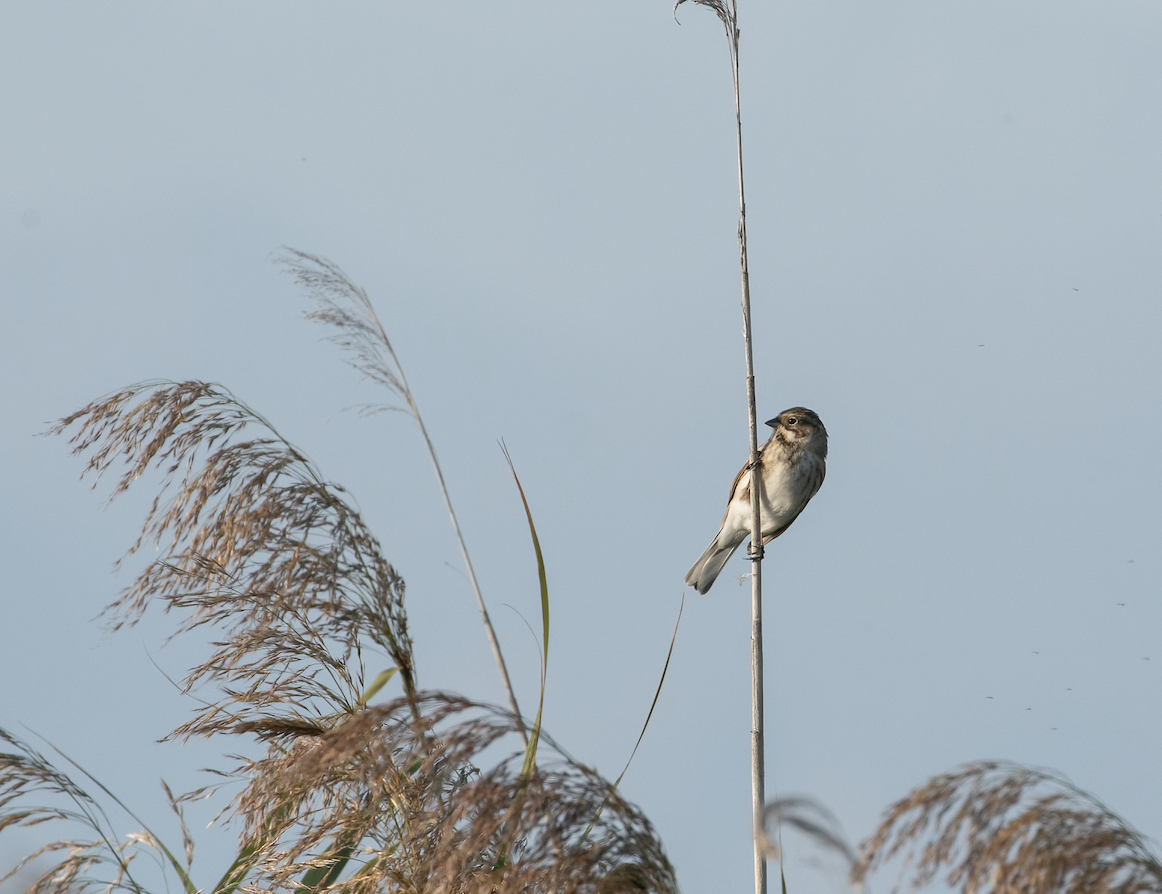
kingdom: Animalia
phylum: Chordata
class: Aves
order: Passeriformes
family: Emberizidae
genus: Emberiza
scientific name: Emberiza schoeniclus
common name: Reed bunting
